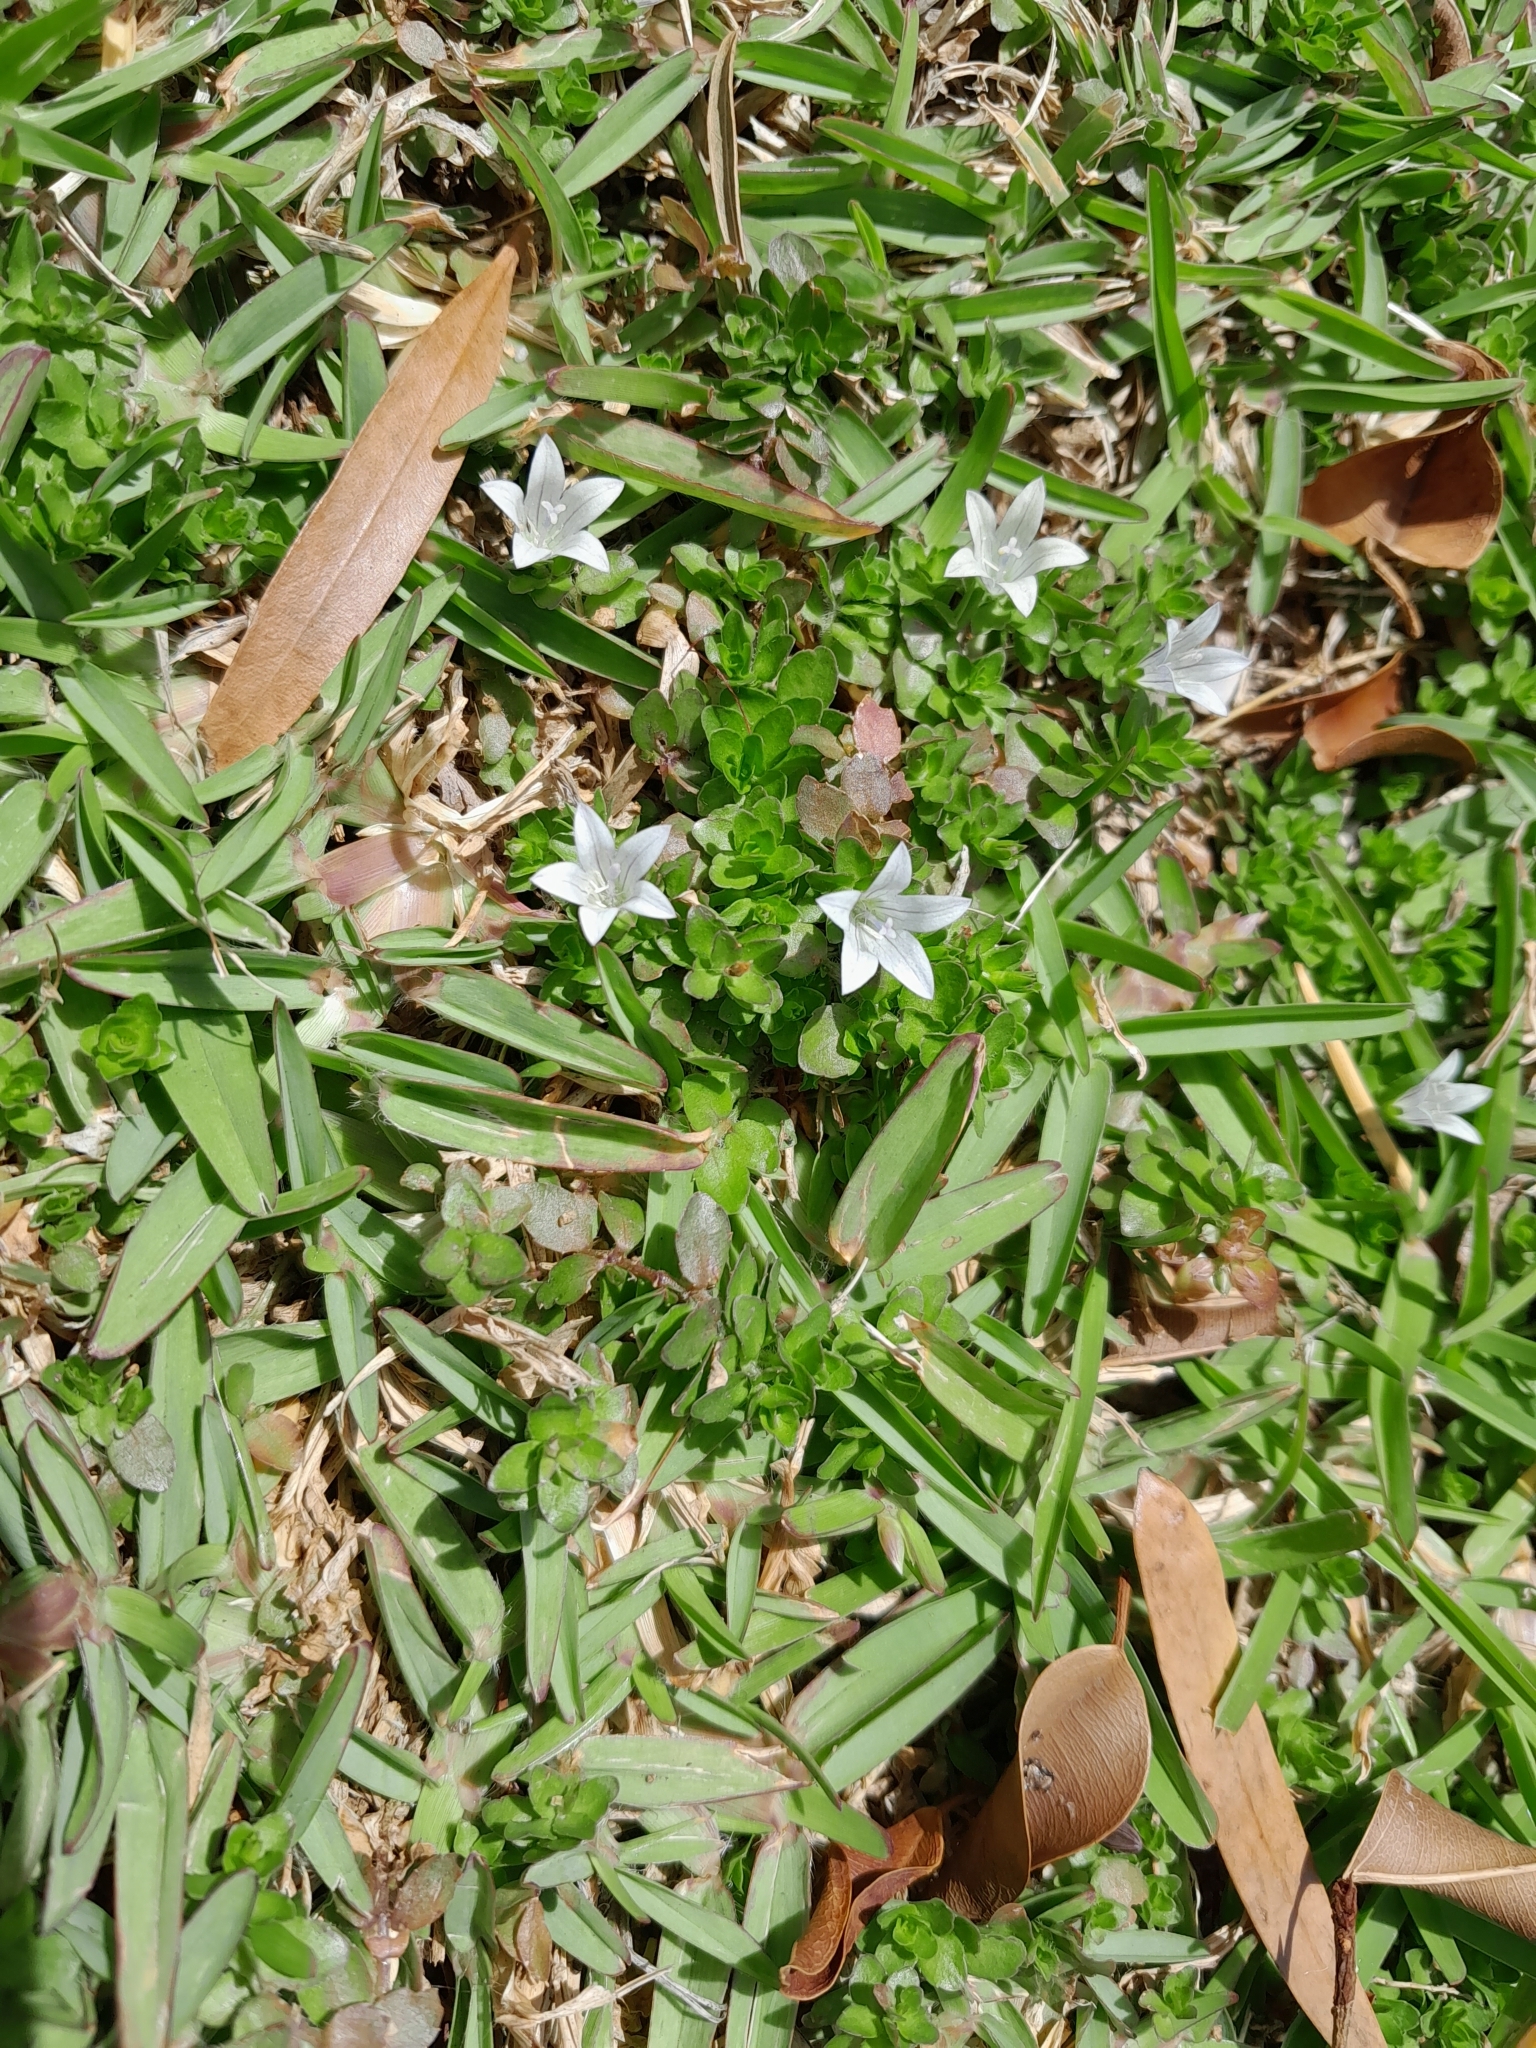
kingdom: Plantae
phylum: Tracheophyta
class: Magnoliopsida
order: Asterales
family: Campanulaceae
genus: Wahlenbergia
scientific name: Wahlenbergia procumbens
